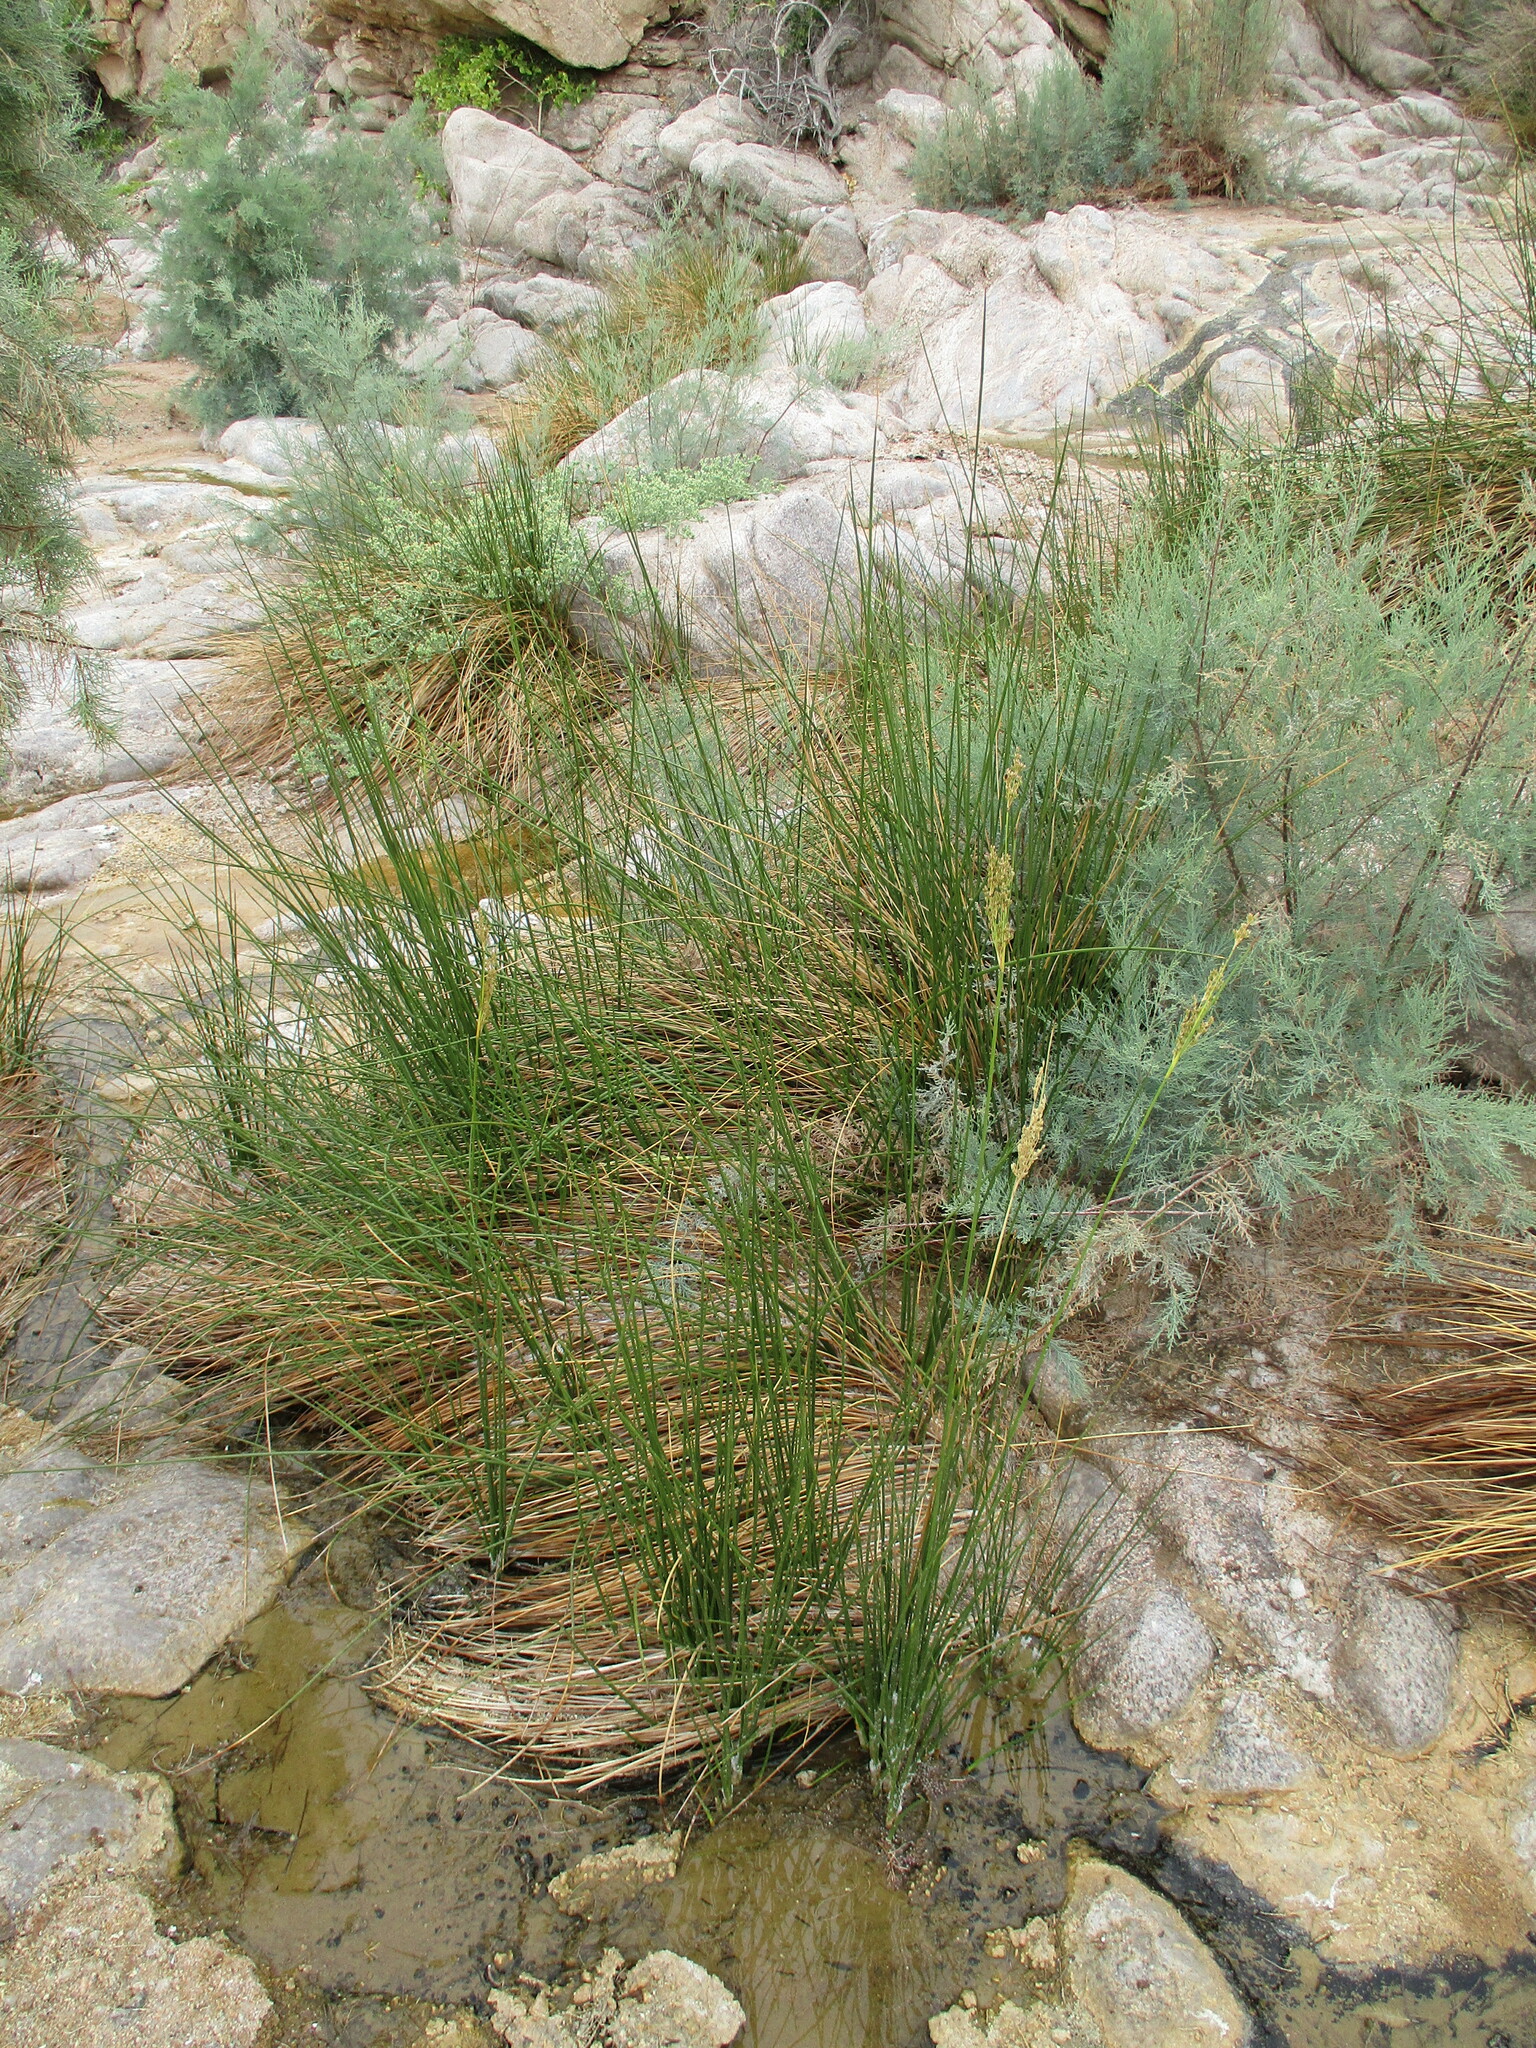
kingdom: Plantae
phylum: Tracheophyta
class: Liliopsida
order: Poales
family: Juncaceae
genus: Juncus
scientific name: Juncus rigidus
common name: Hard sea rush
